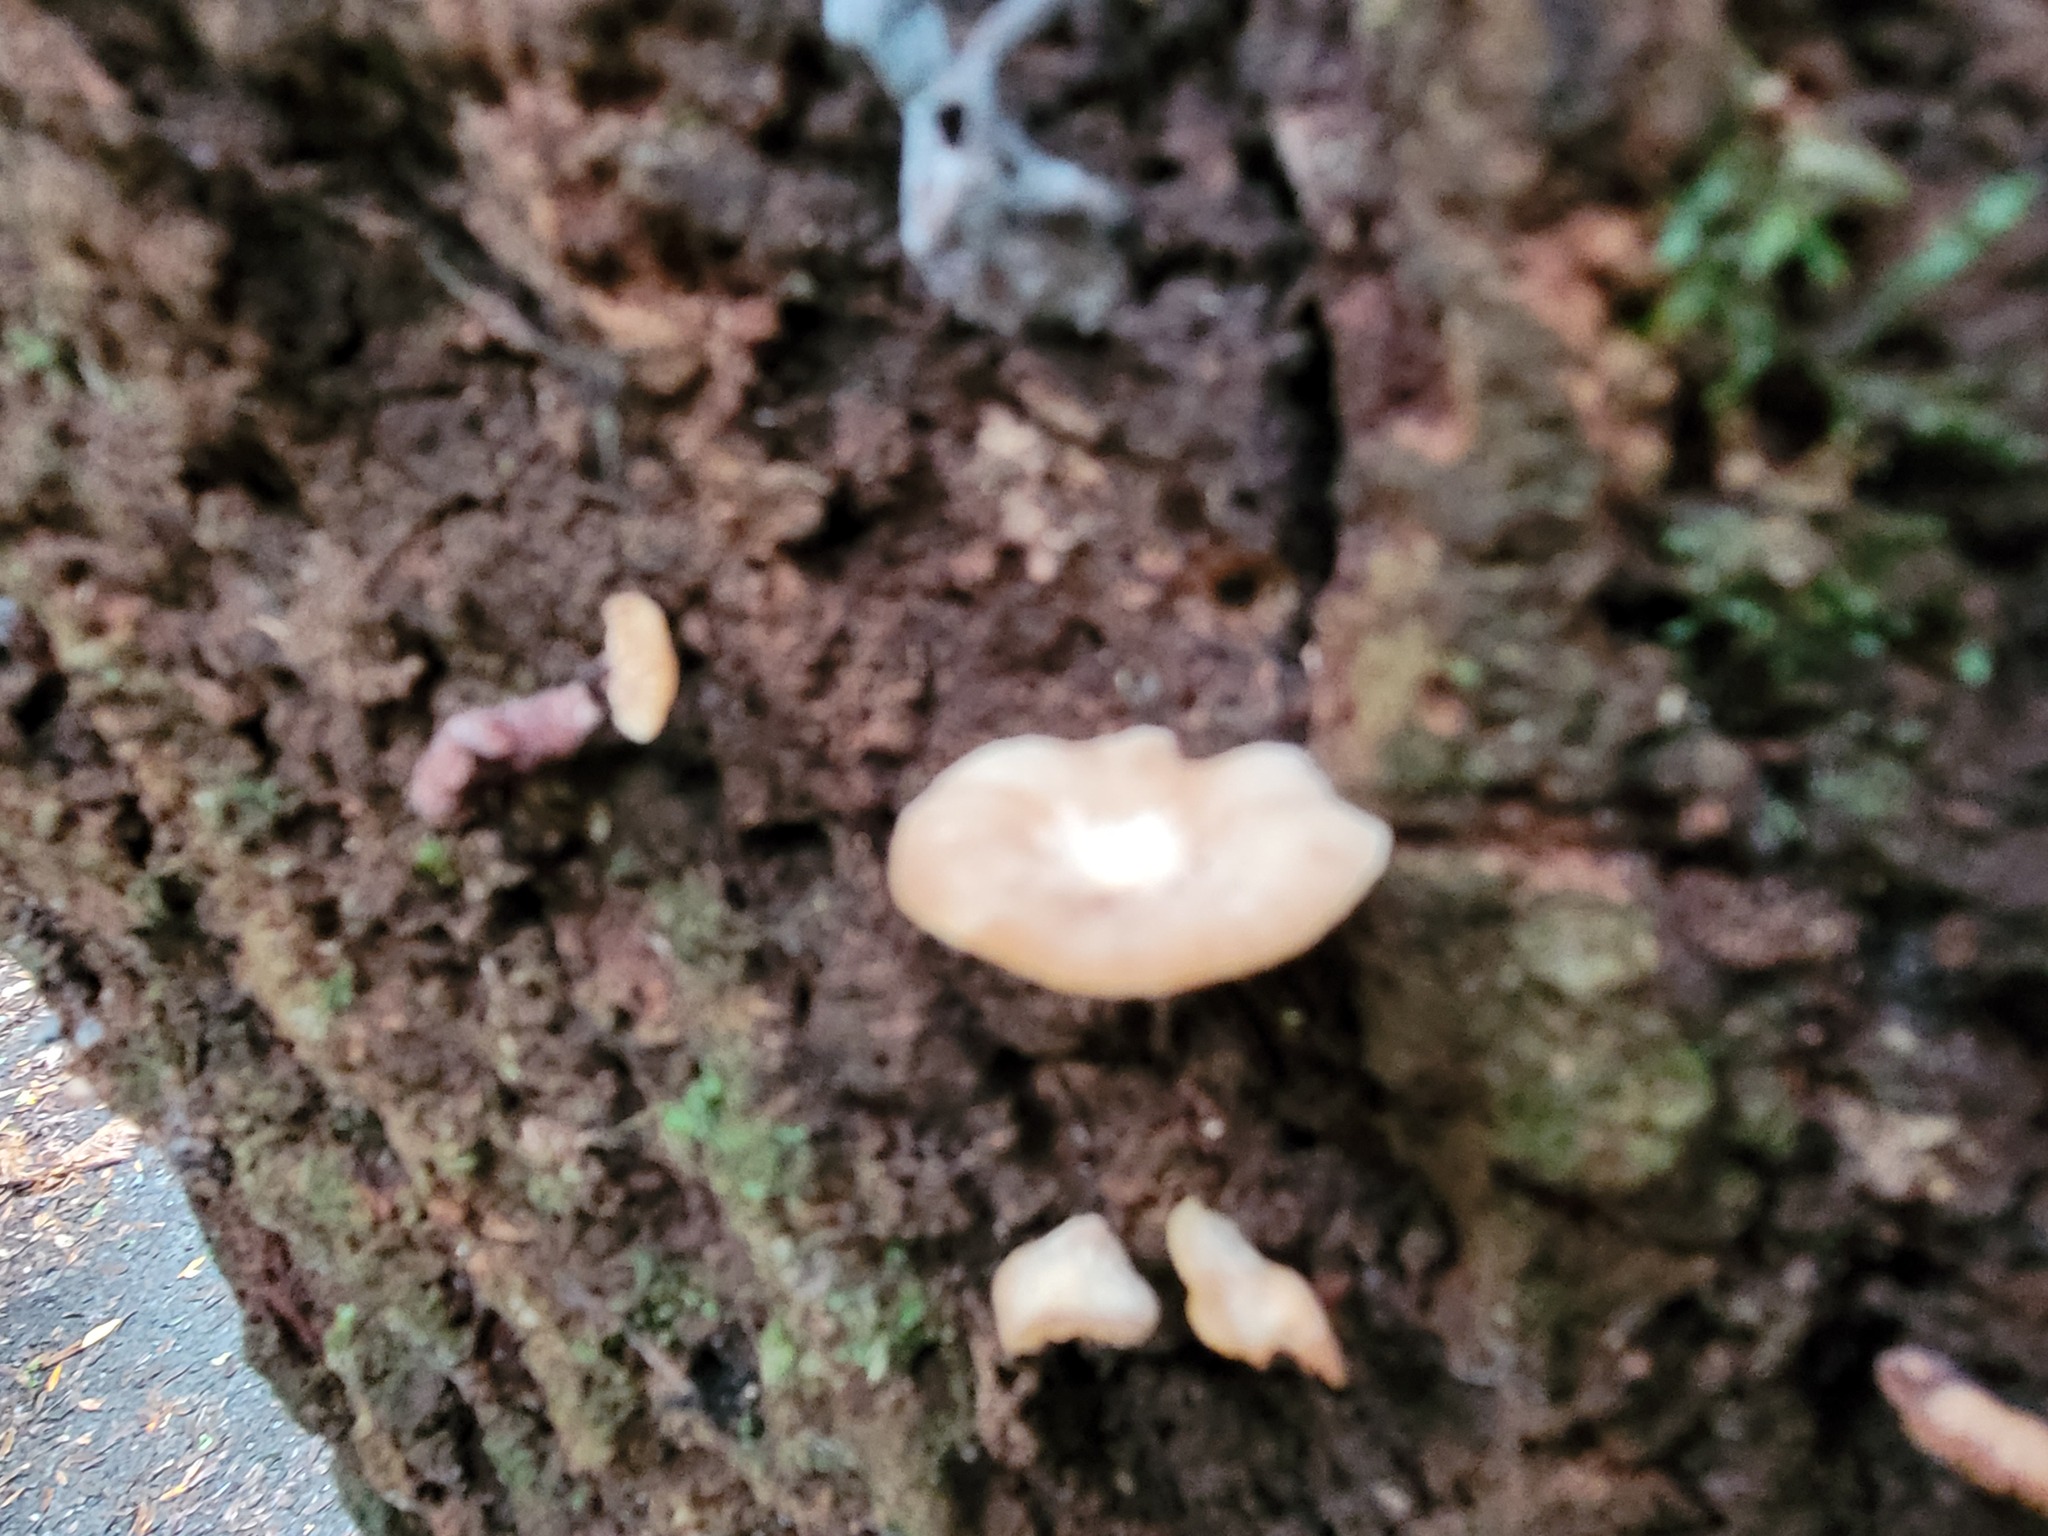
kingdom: Plantae
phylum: Tracheophyta
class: Magnoliopsida
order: Asterales
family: Asteraceae
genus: Olearia
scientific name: Olearia rani
